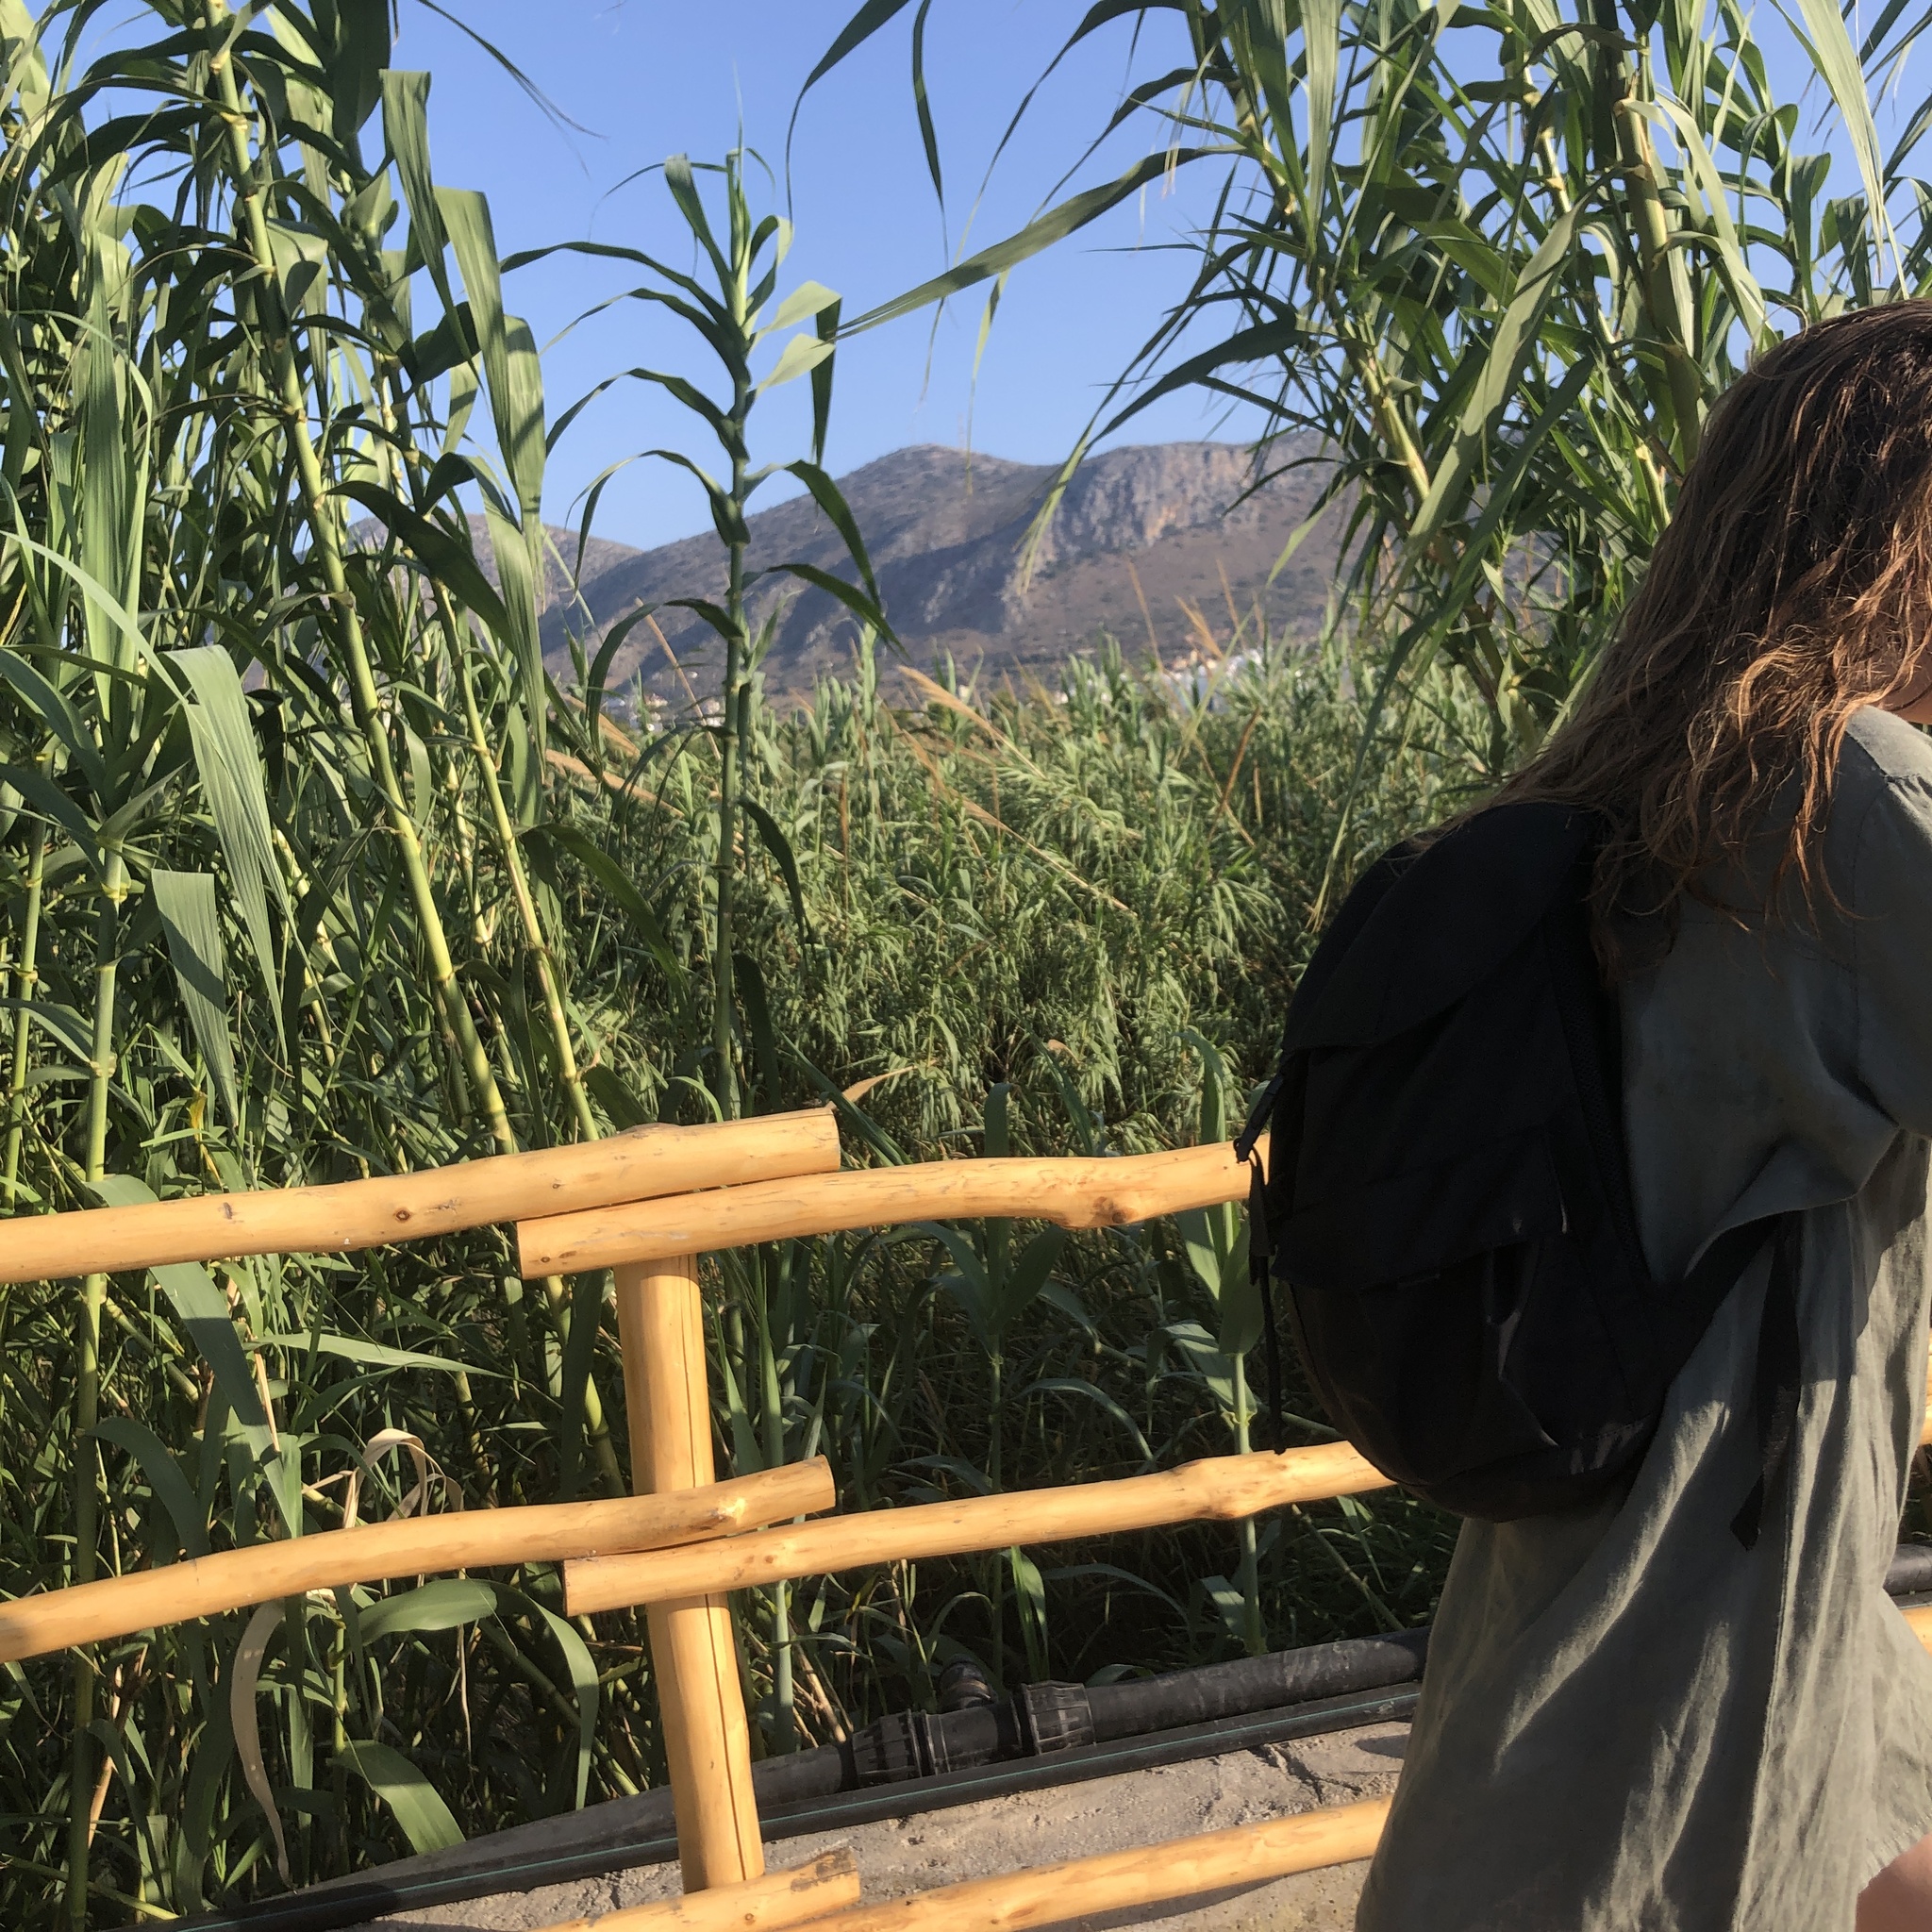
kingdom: Plantae
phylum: Tracheophyta
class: Liliopsida
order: Poales
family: Poaceae
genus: Arundo
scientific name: Arundo donax
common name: Giant reed
